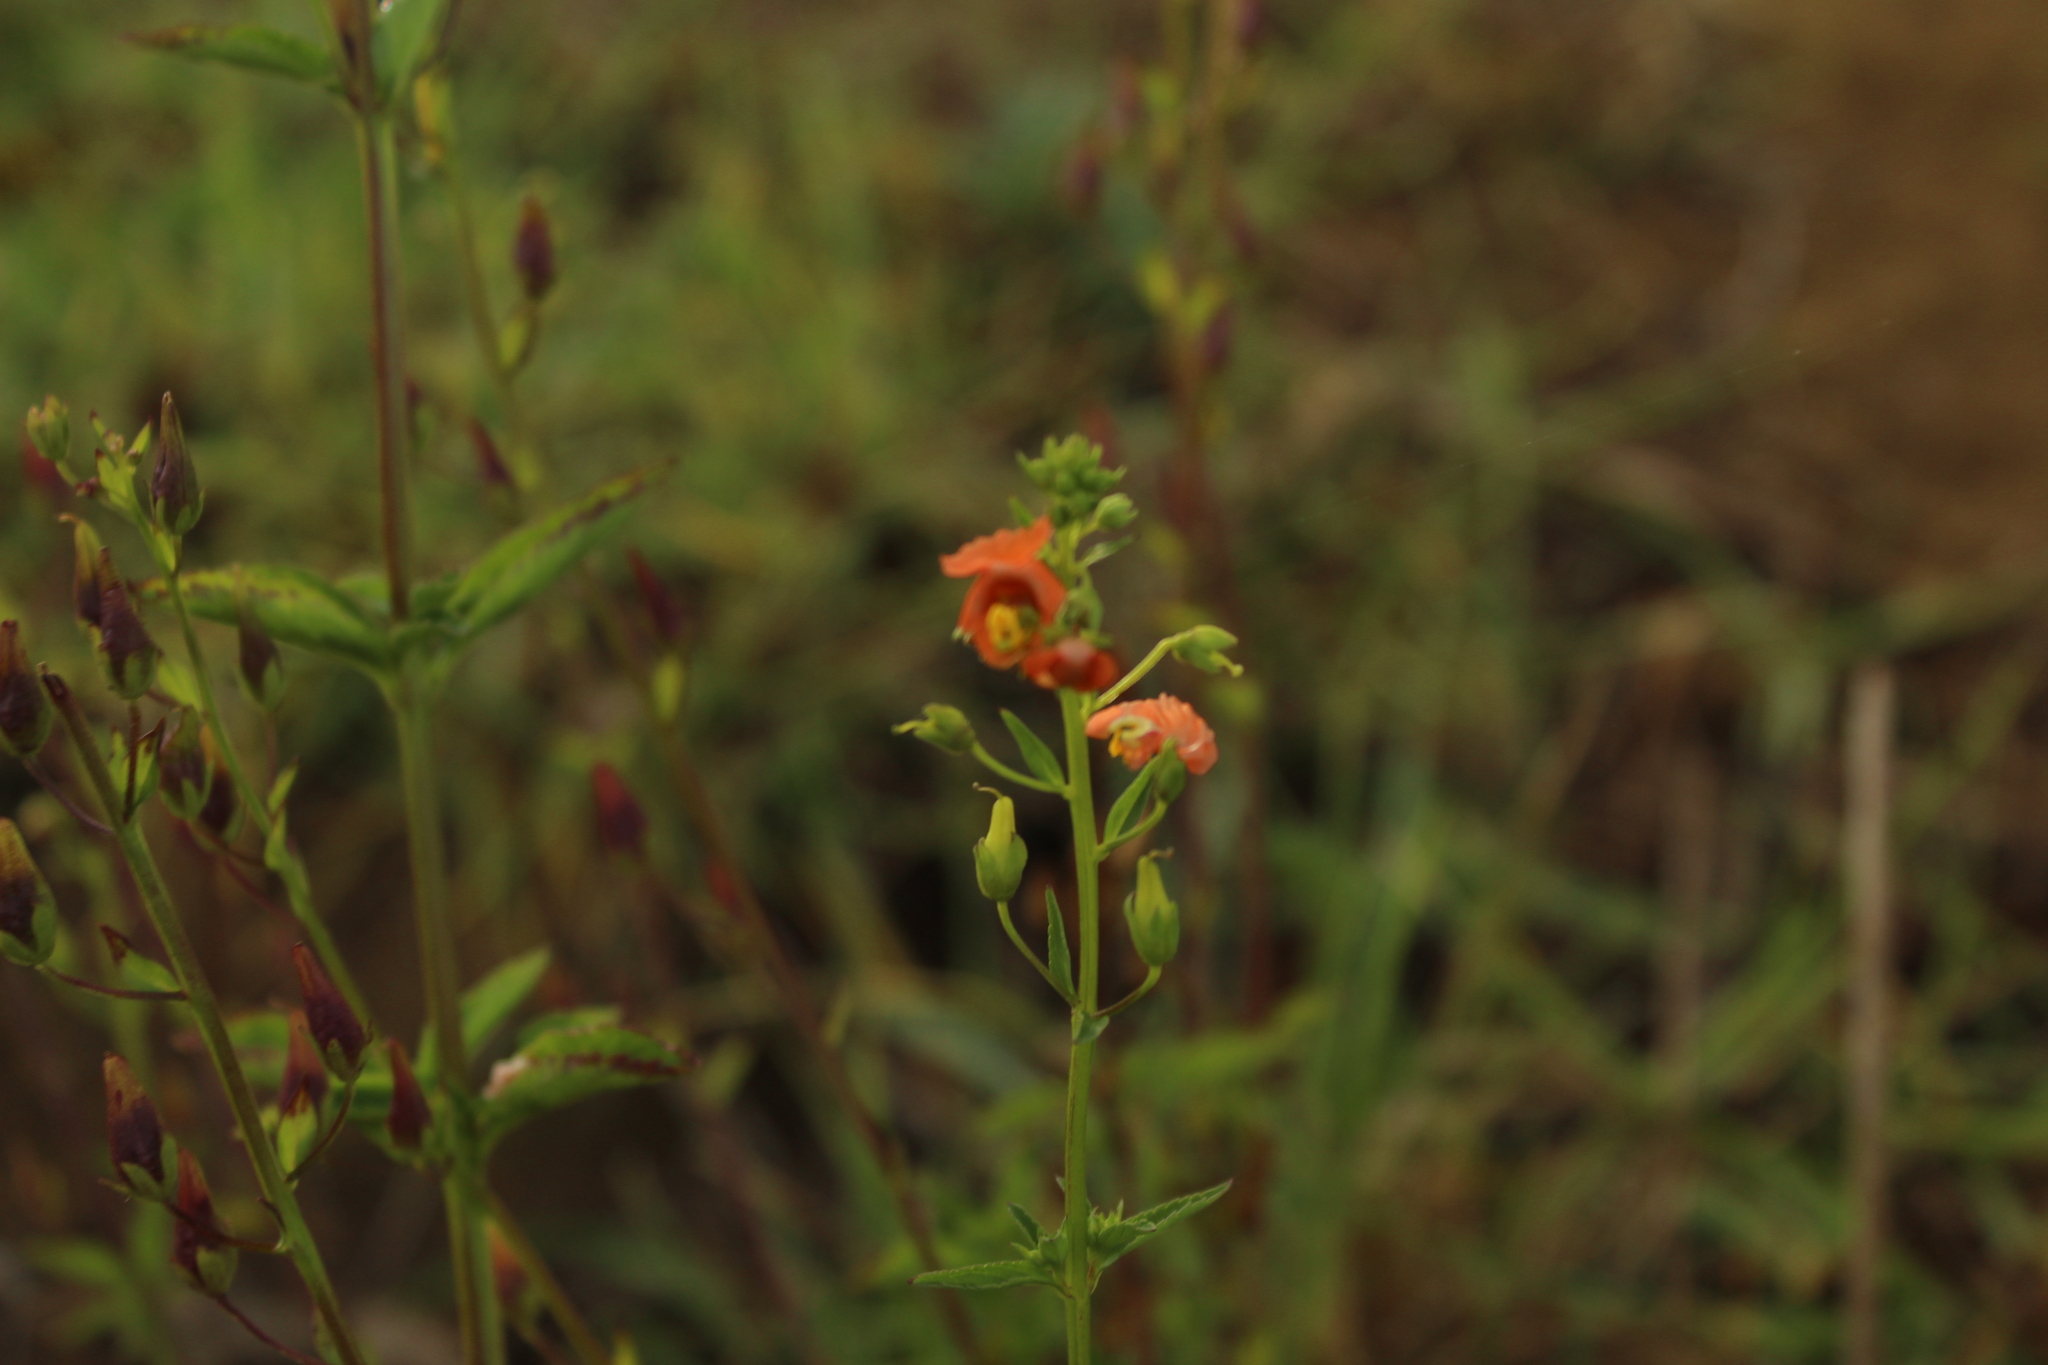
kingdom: Plantae
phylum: Tracheophyta
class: Magnoliopsida
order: Lamiales
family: Scrophulariaceae
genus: Alonsoa
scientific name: Alonsoa meridionalis
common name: Maskflower
